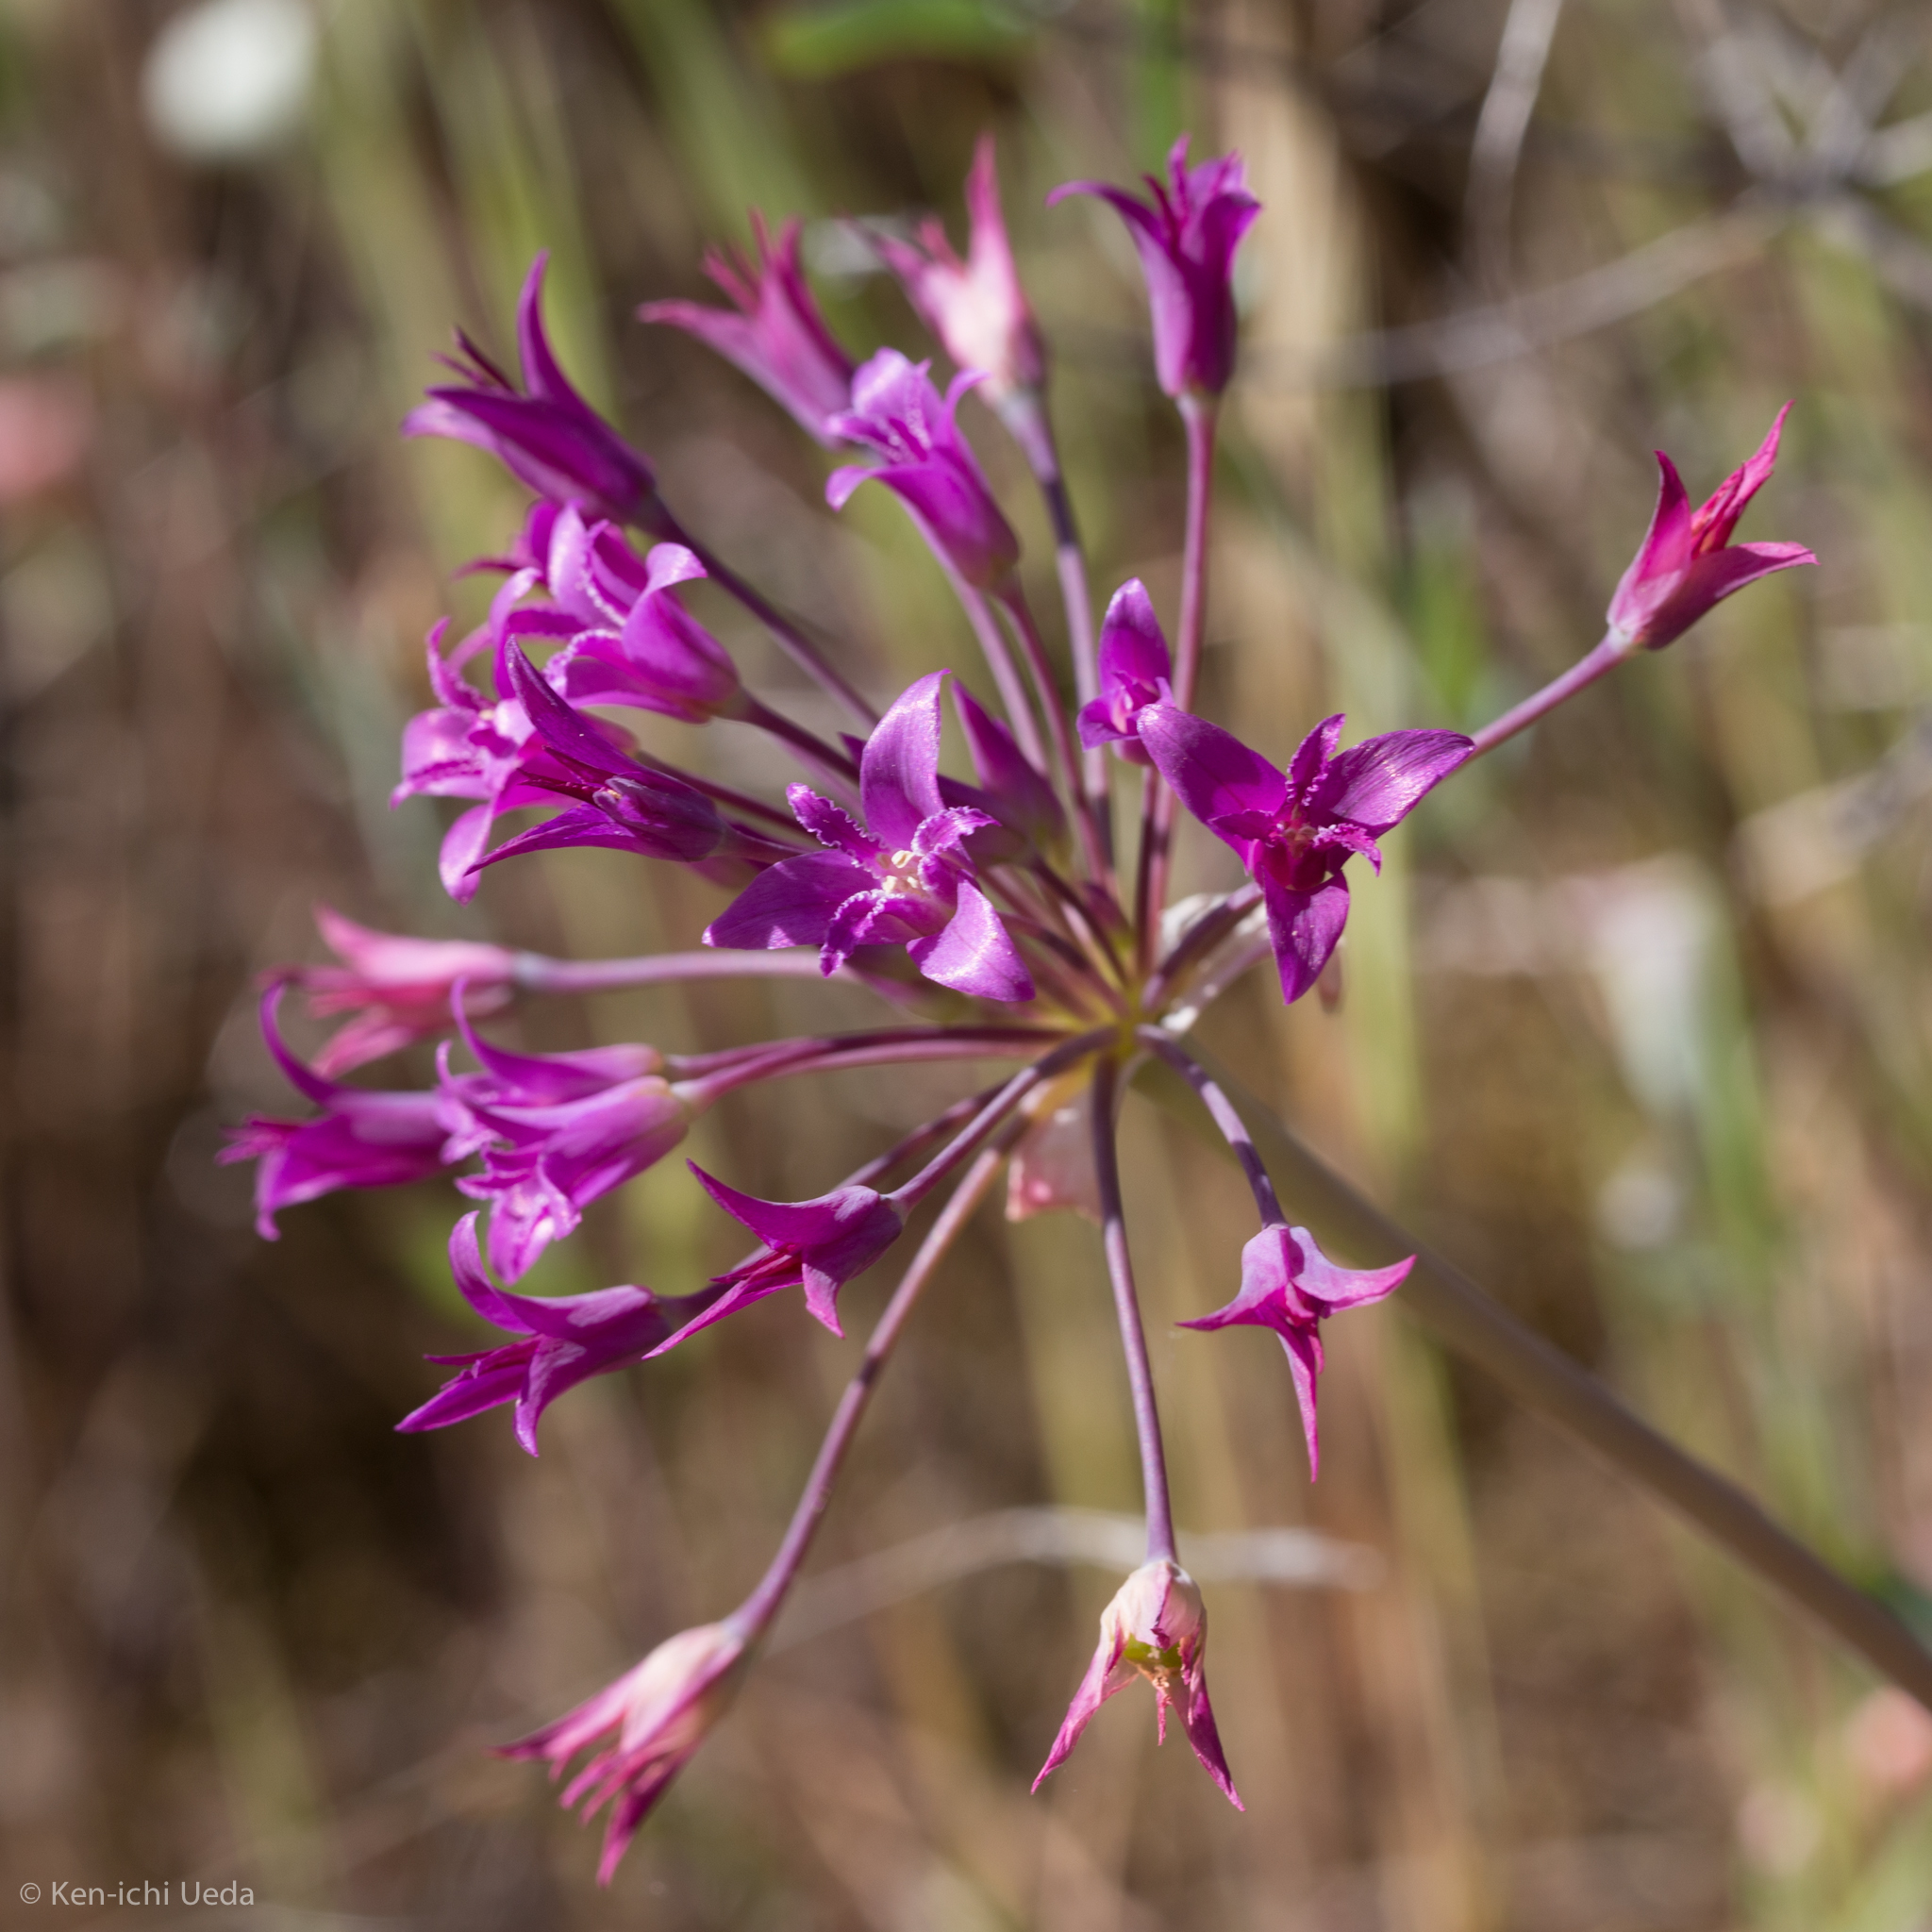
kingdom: Plantae
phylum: Tracheophyta
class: Liliopsida
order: Asparagales
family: Amaryllidaceae
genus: Allium
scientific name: Allium crispum
